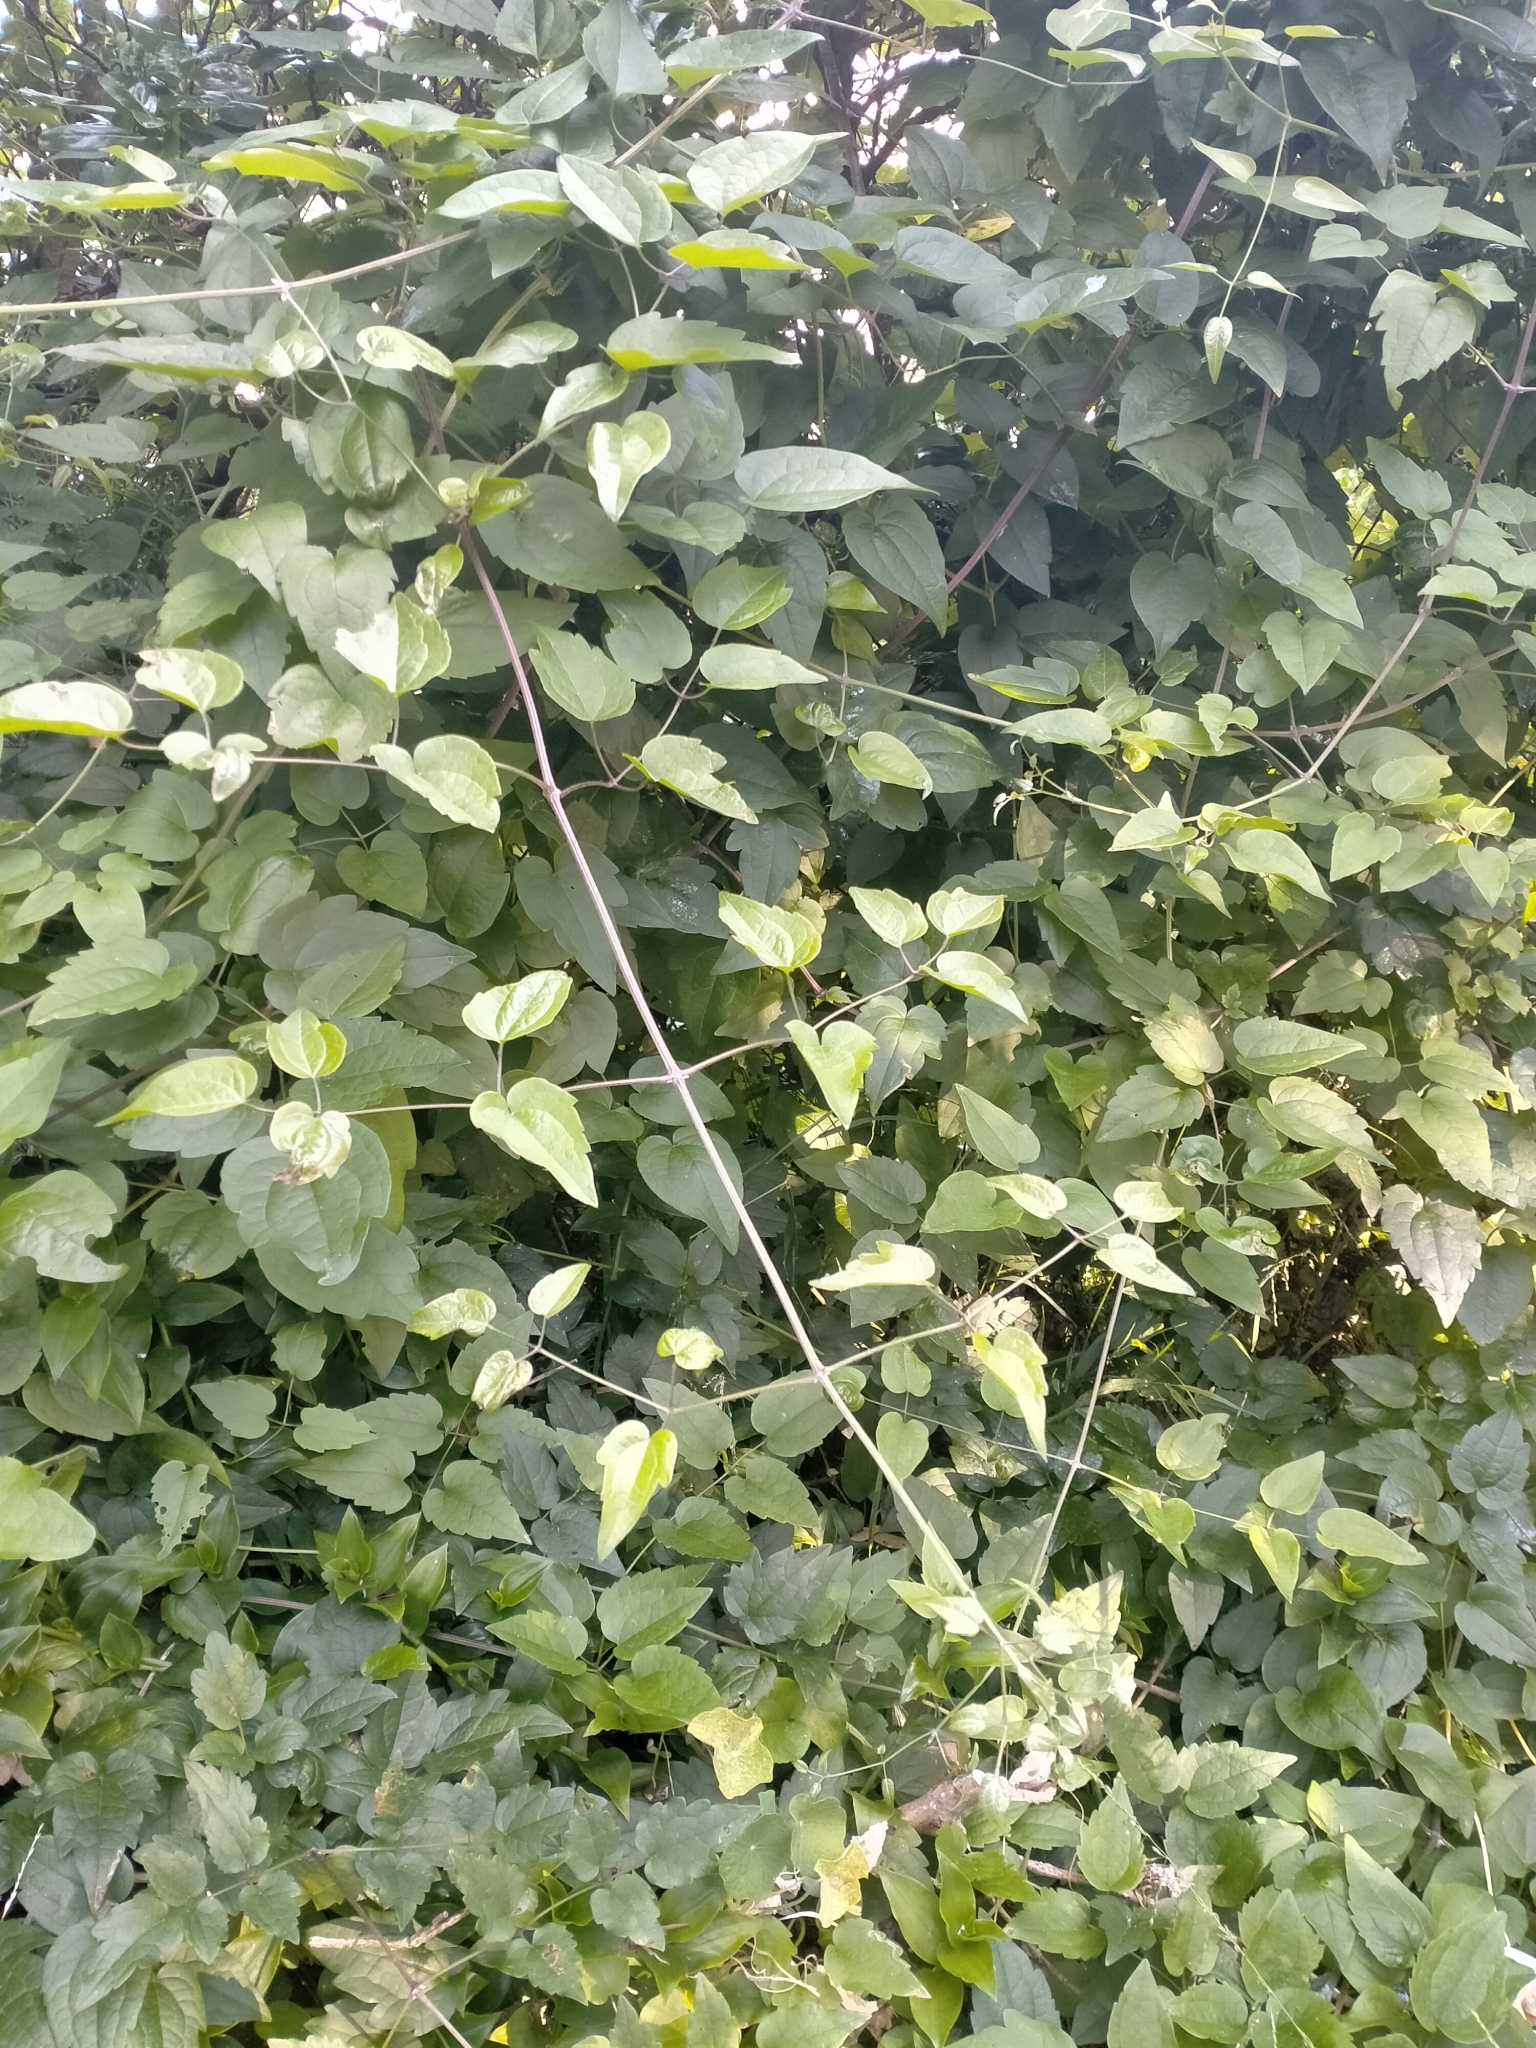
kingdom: Plantae
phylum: Tracheophyta
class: Magnoliopsida
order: Ranunculales
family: Ranunculaceae
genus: Clematis
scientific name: Clematis vitalba
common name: Evergreen clematis
